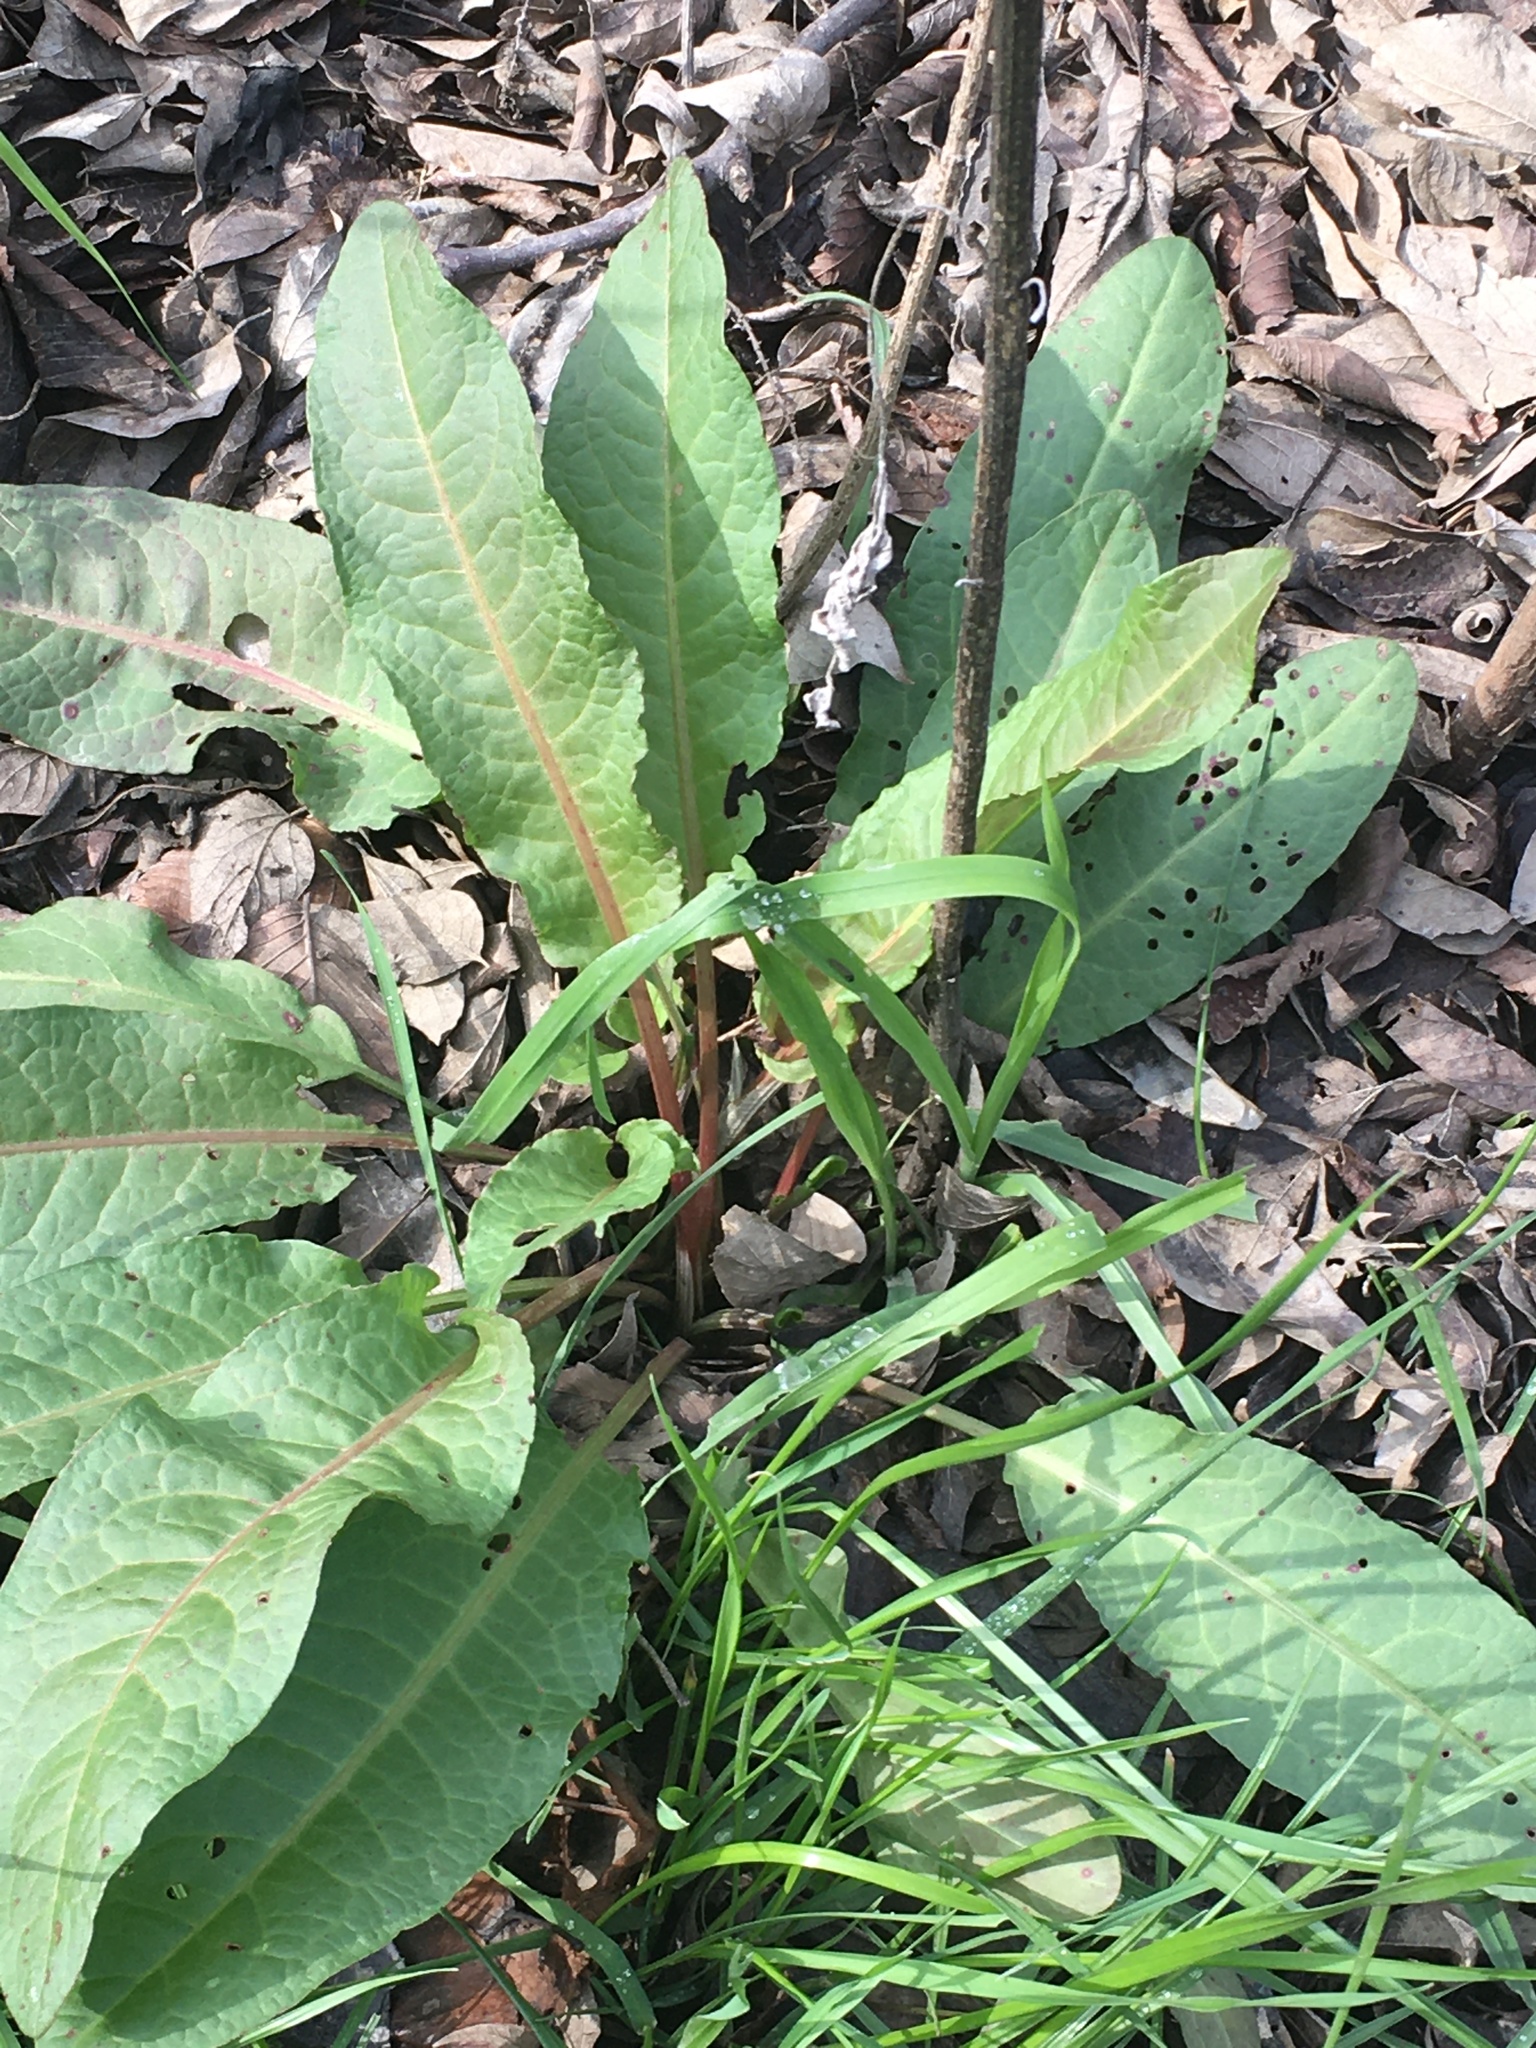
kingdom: Plantae
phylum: Tracheophyta
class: Magnoliopsida
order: Caryophyllales
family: Polygonaceae
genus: Rumex
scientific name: Rumex crispus
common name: Curled dock
